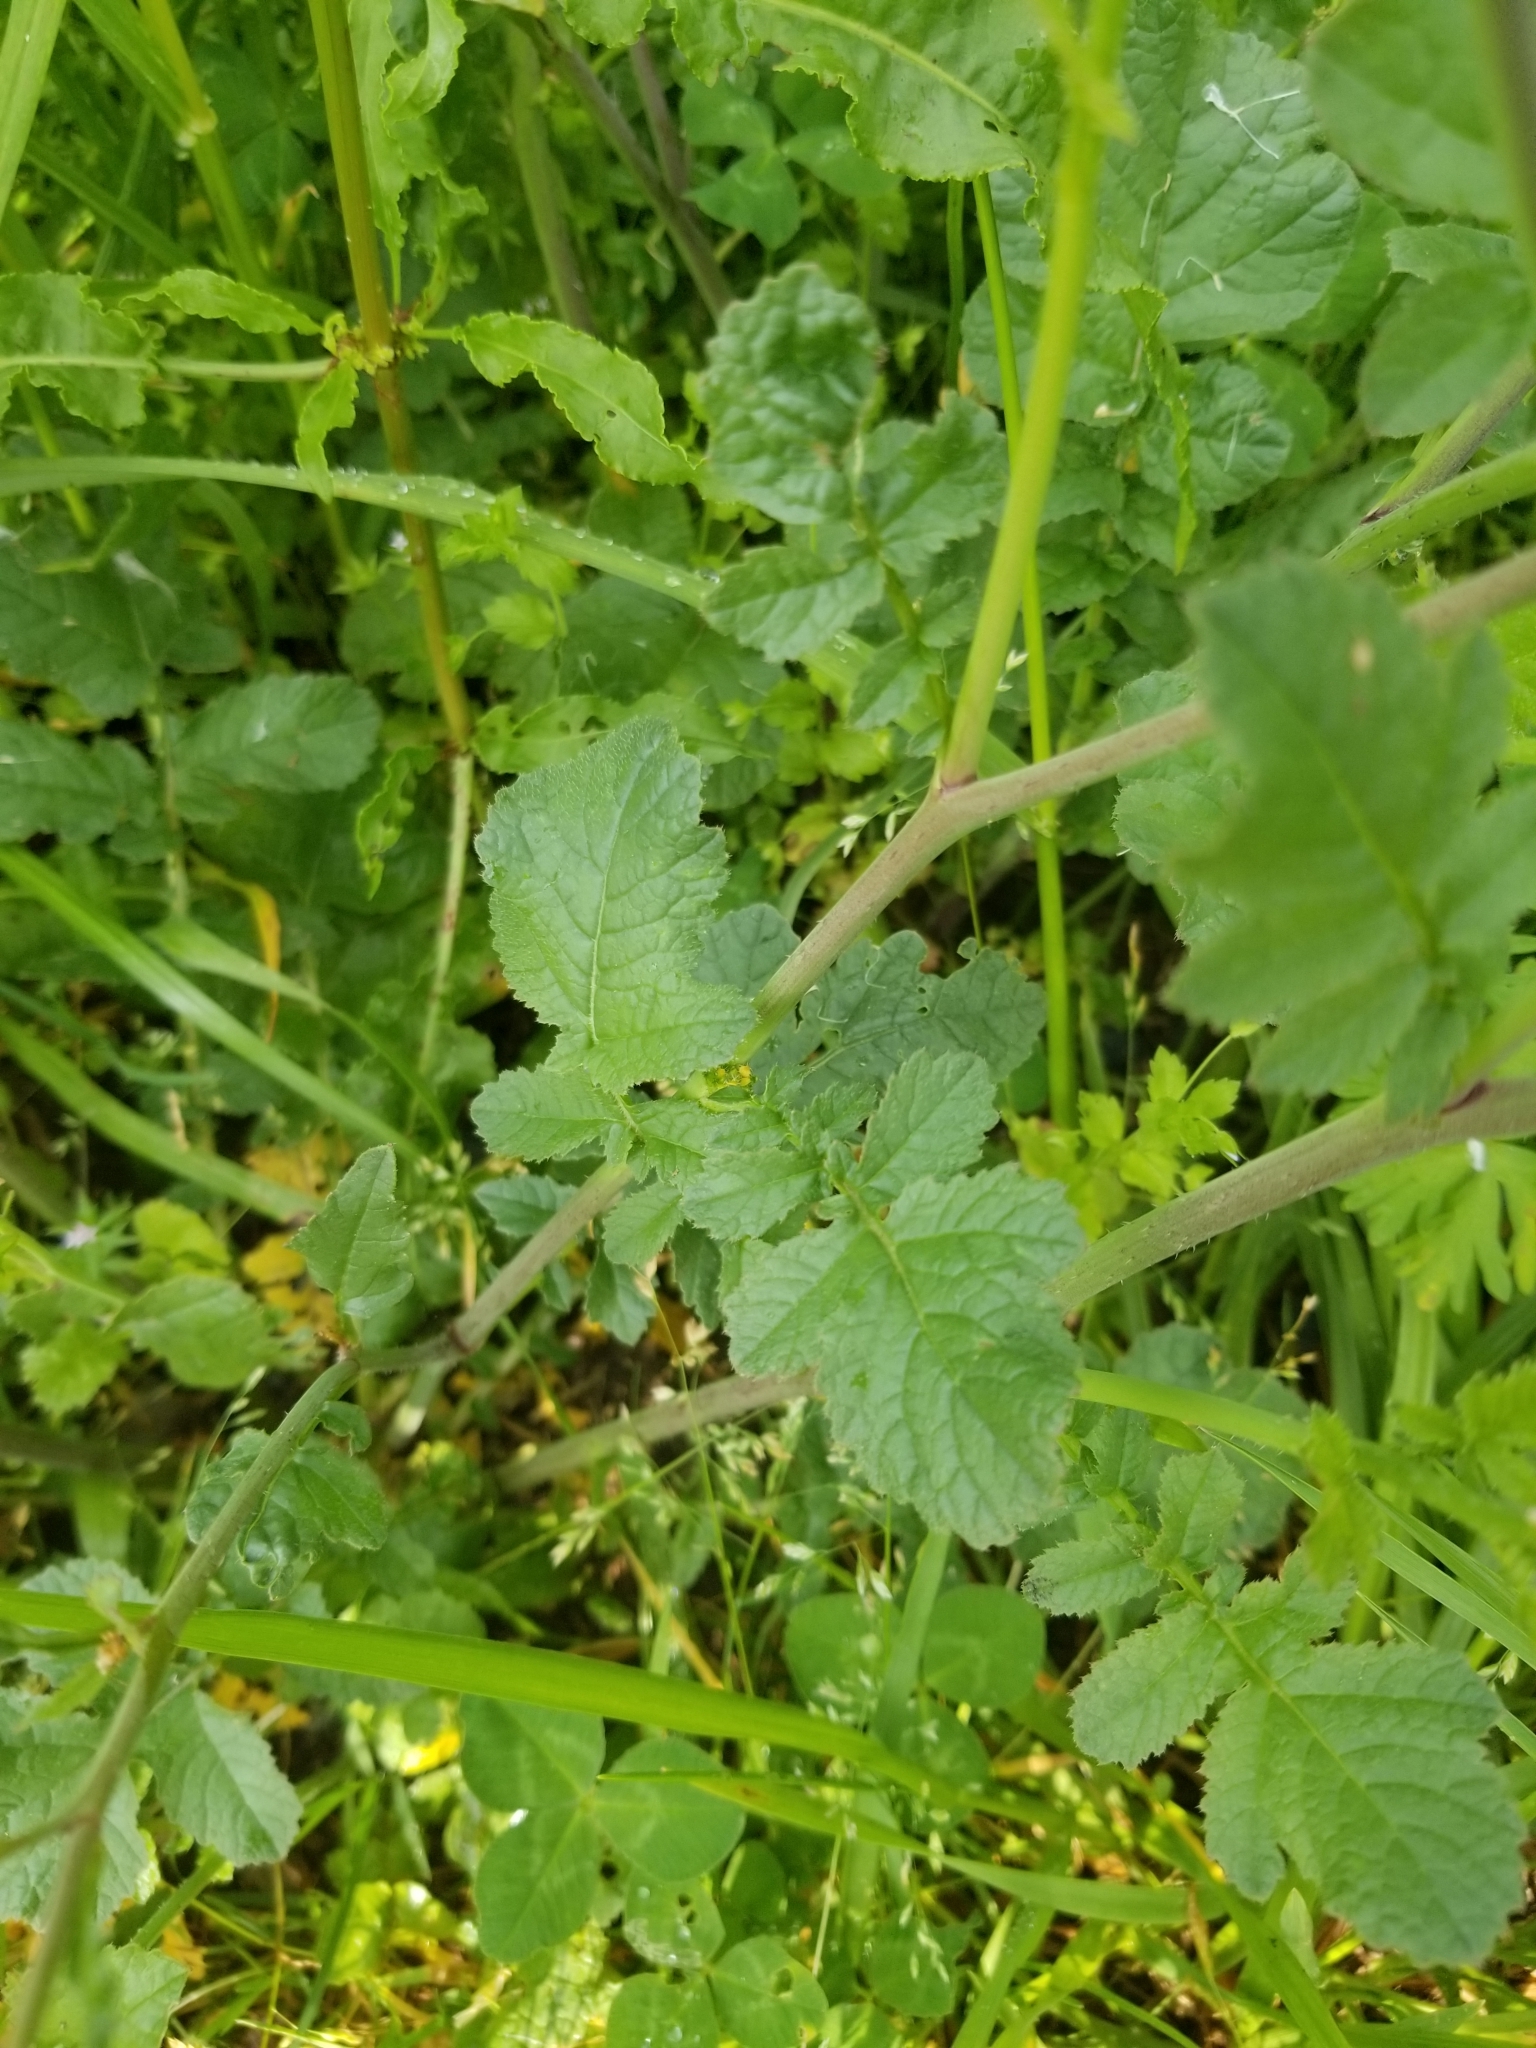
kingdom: Plantae
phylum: Tracheophyta
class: Magnoliopsida
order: Brassicales
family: Brassicaceae
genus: Raphanus
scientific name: Raphanus raphanistrum
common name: Wild radish
